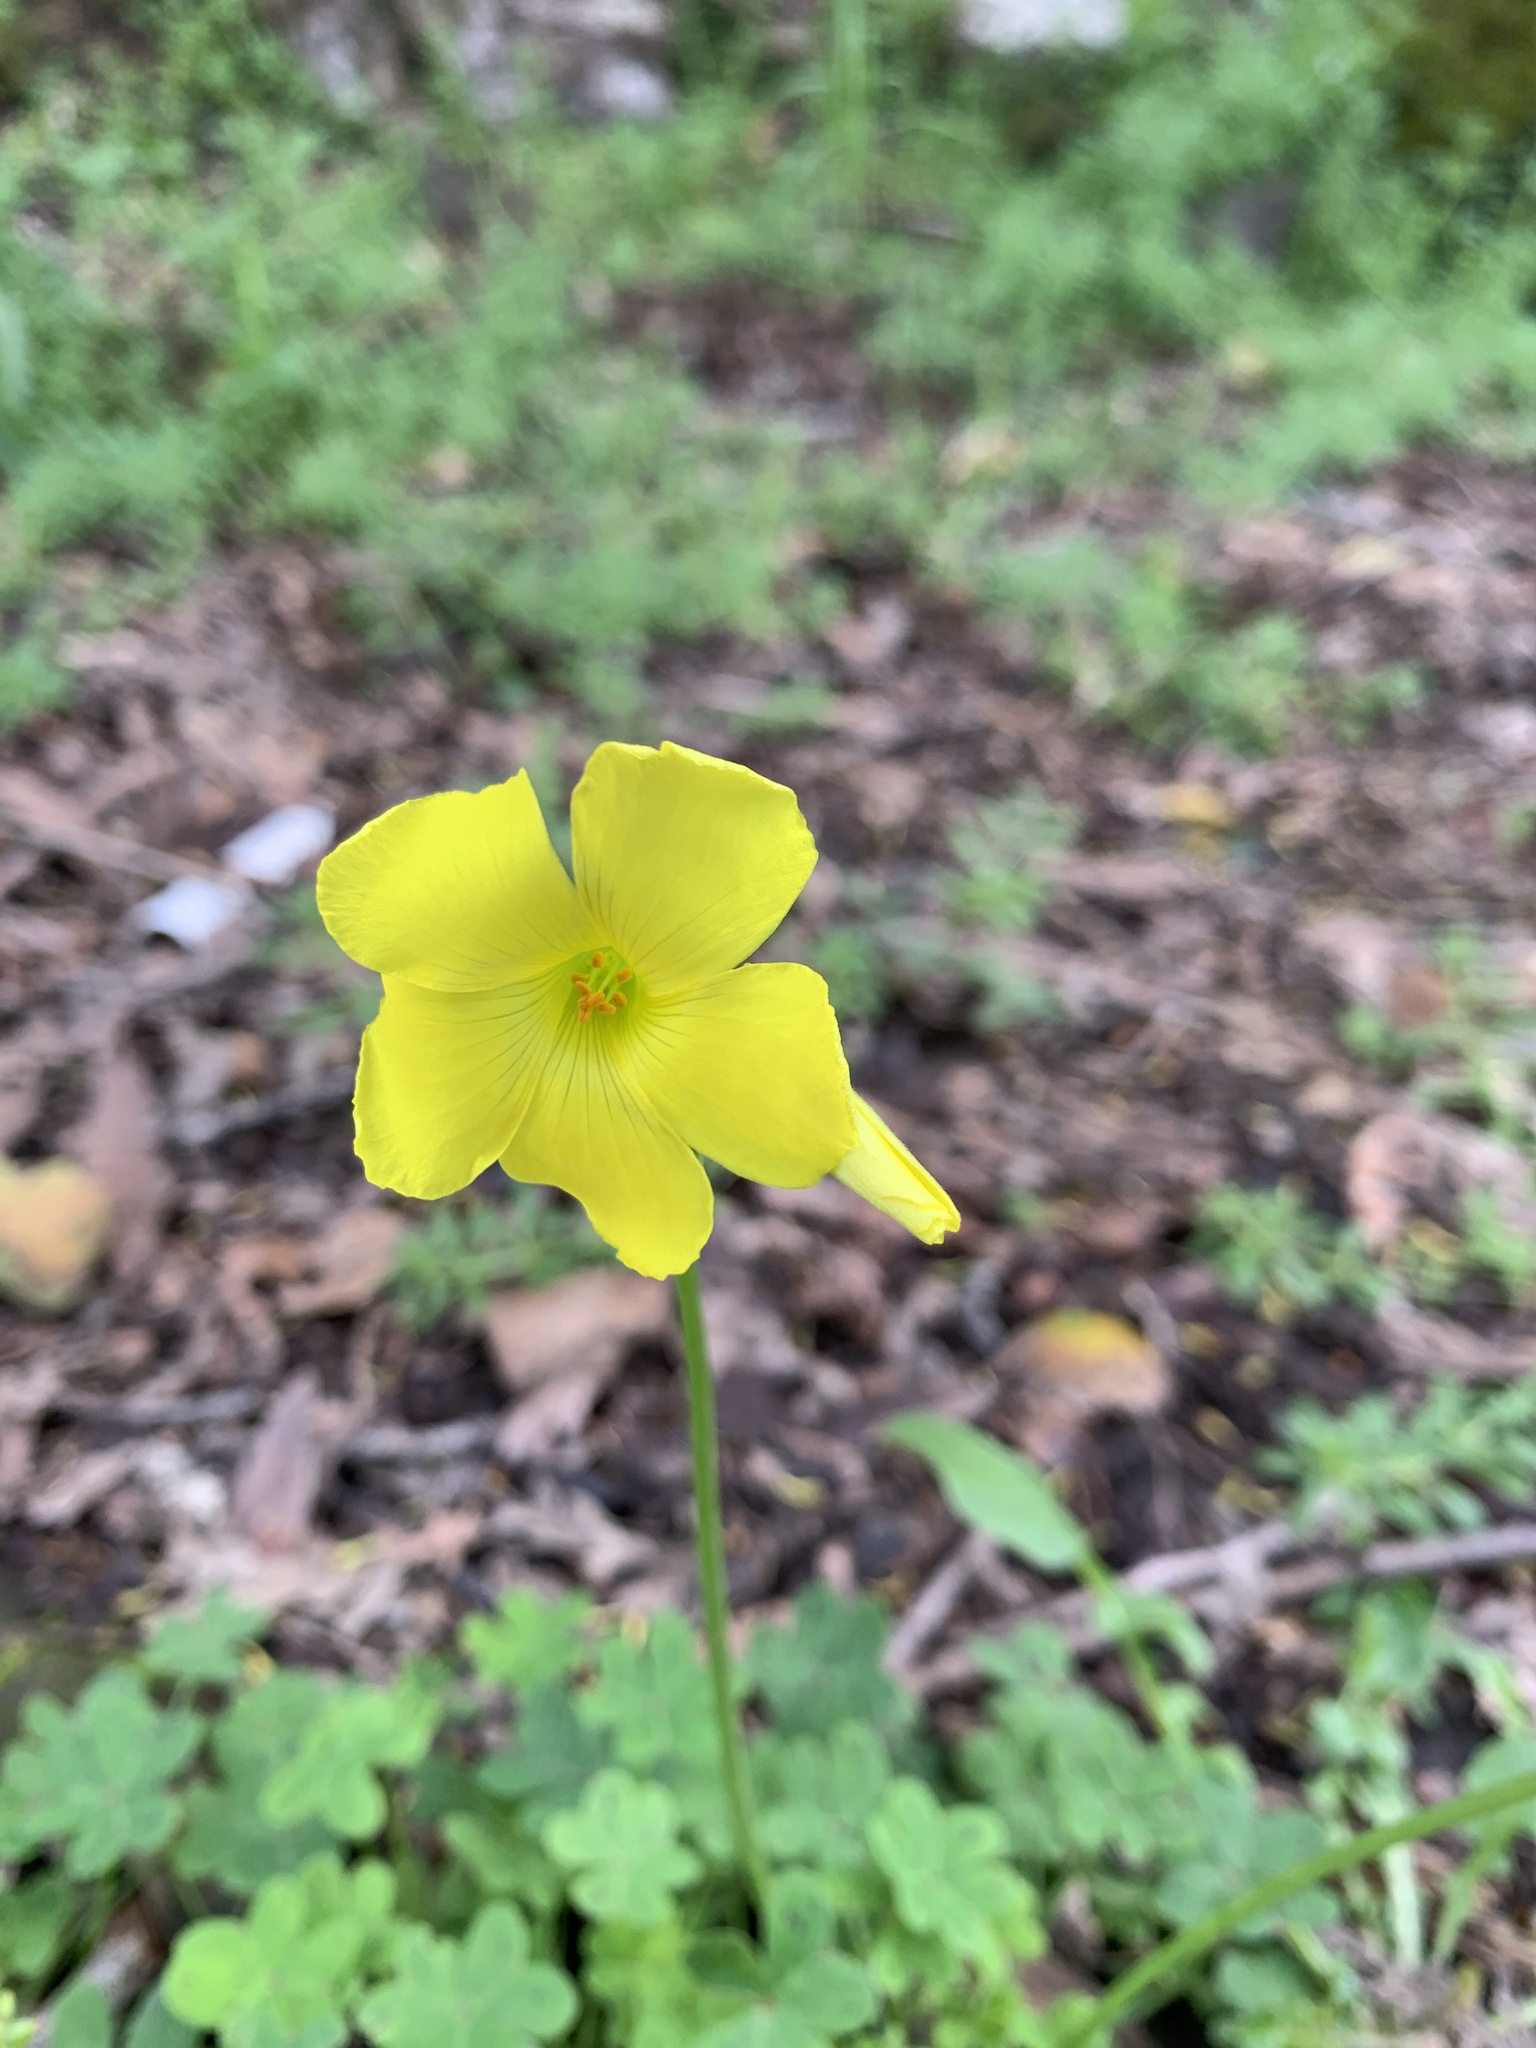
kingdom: Plantae
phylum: Tracheophyta
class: Magnoliopsida
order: Oxalidales
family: Oxalidaceae
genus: Oxalis
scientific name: Oxalis pes-caprae
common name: Bermuda-buttercup
